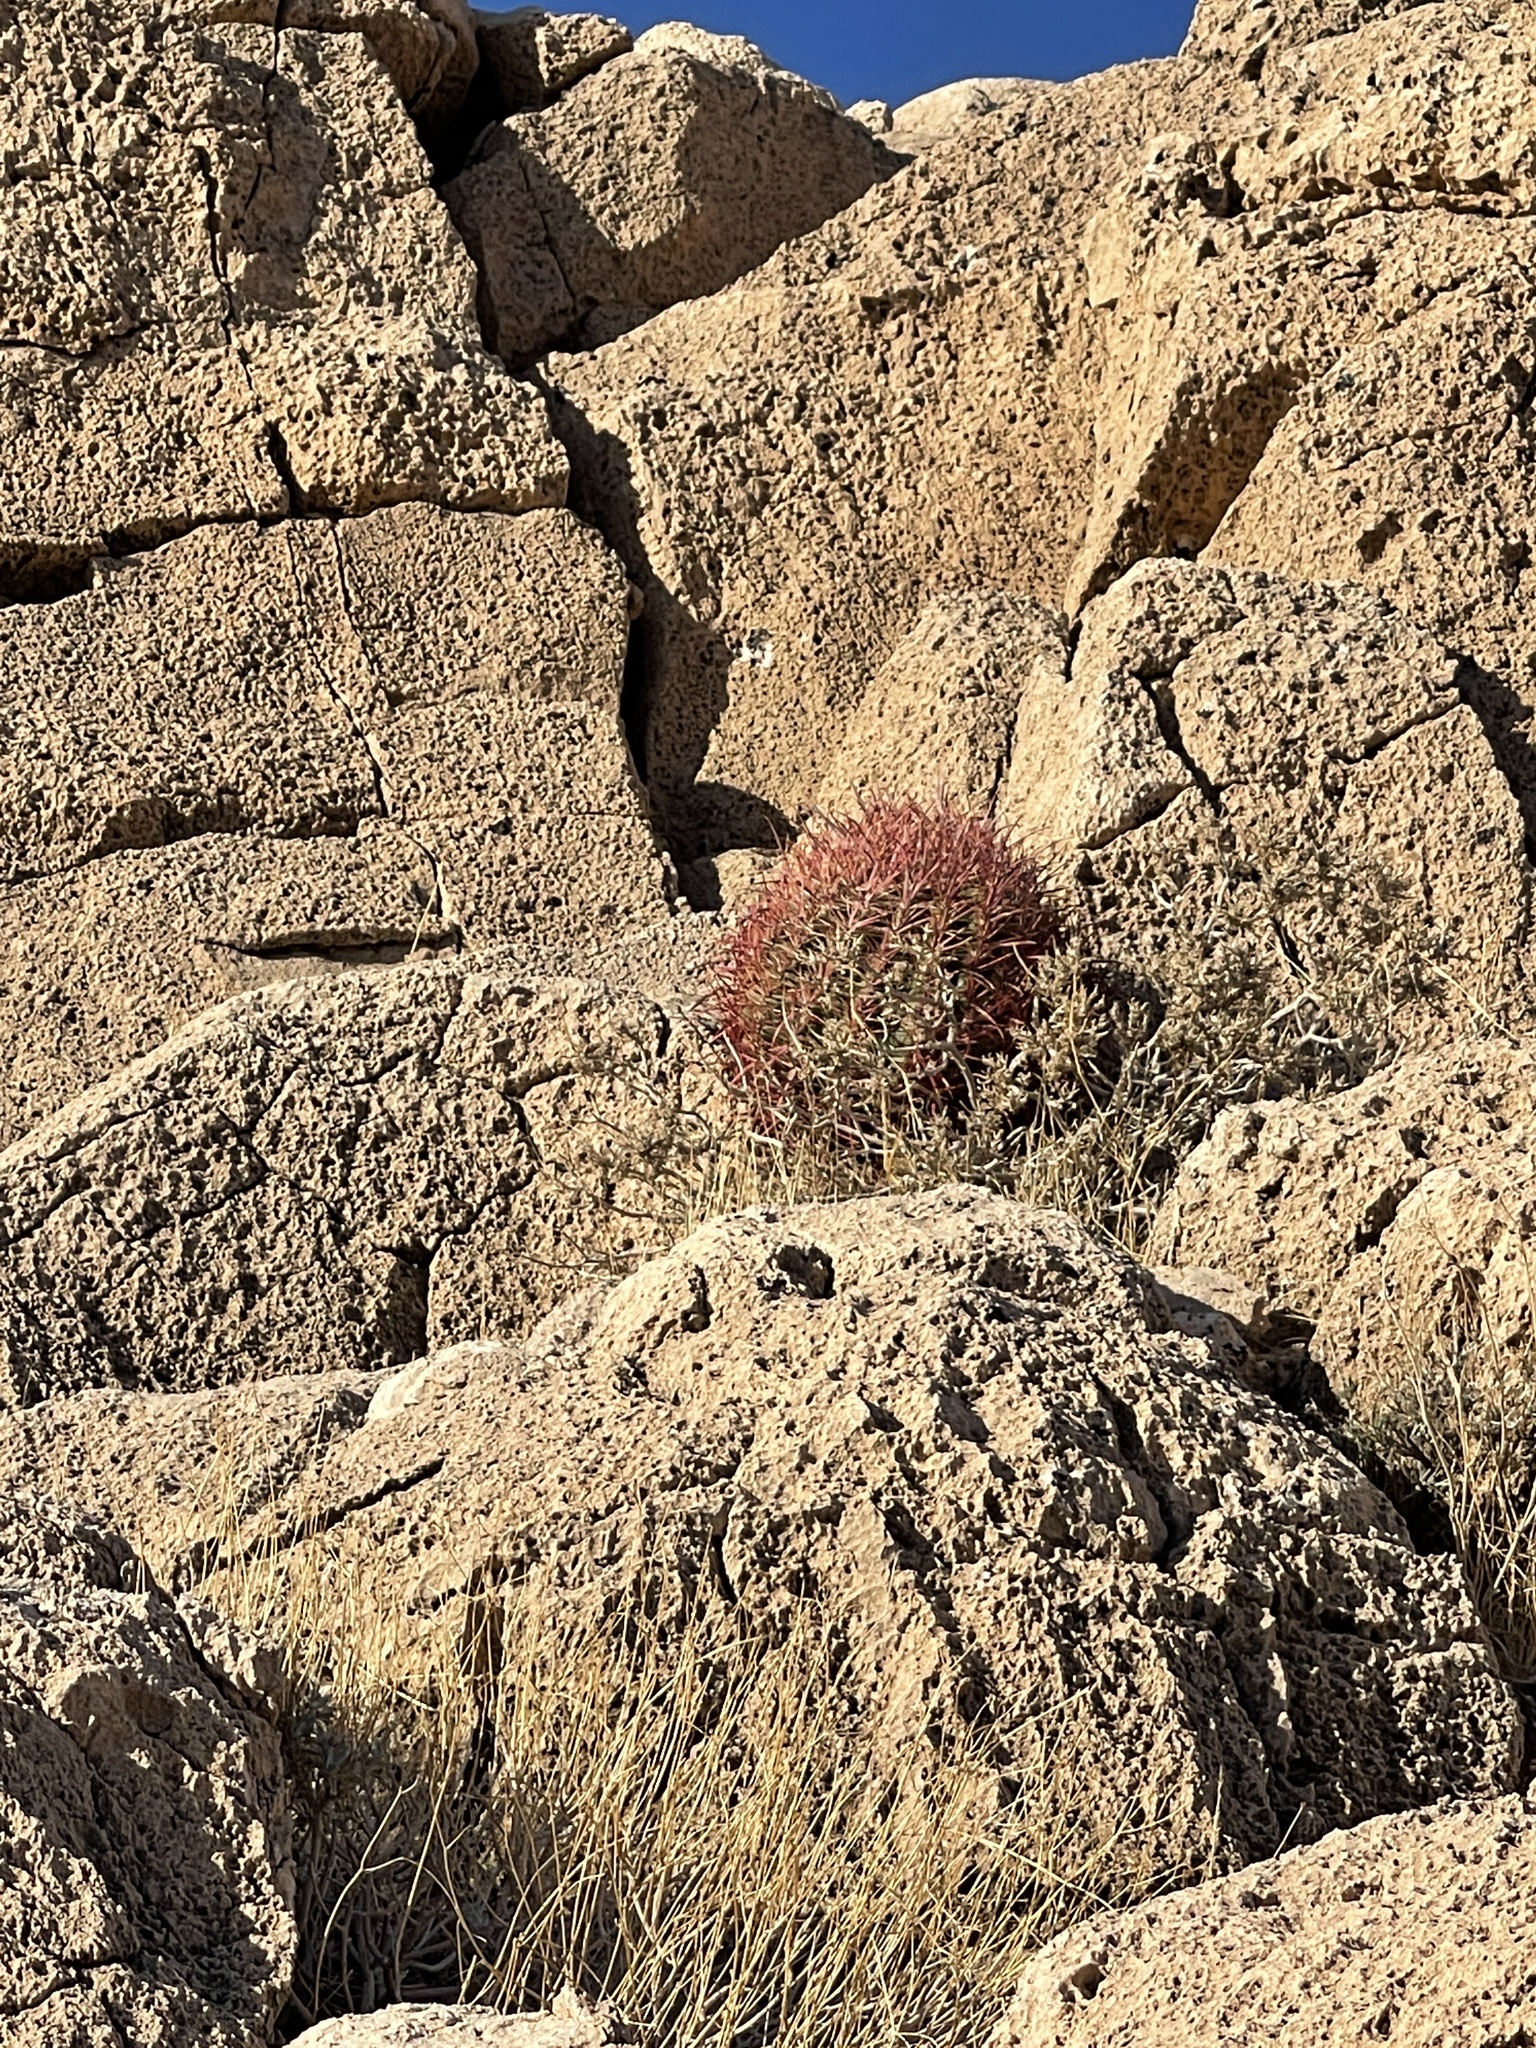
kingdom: Plantae
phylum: Tracheophyta
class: Magnoliopsida
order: Caryophyllales
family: Cactaceae
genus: Ferocactus
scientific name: Ferocactus cylindraceus
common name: California barrel cactus
